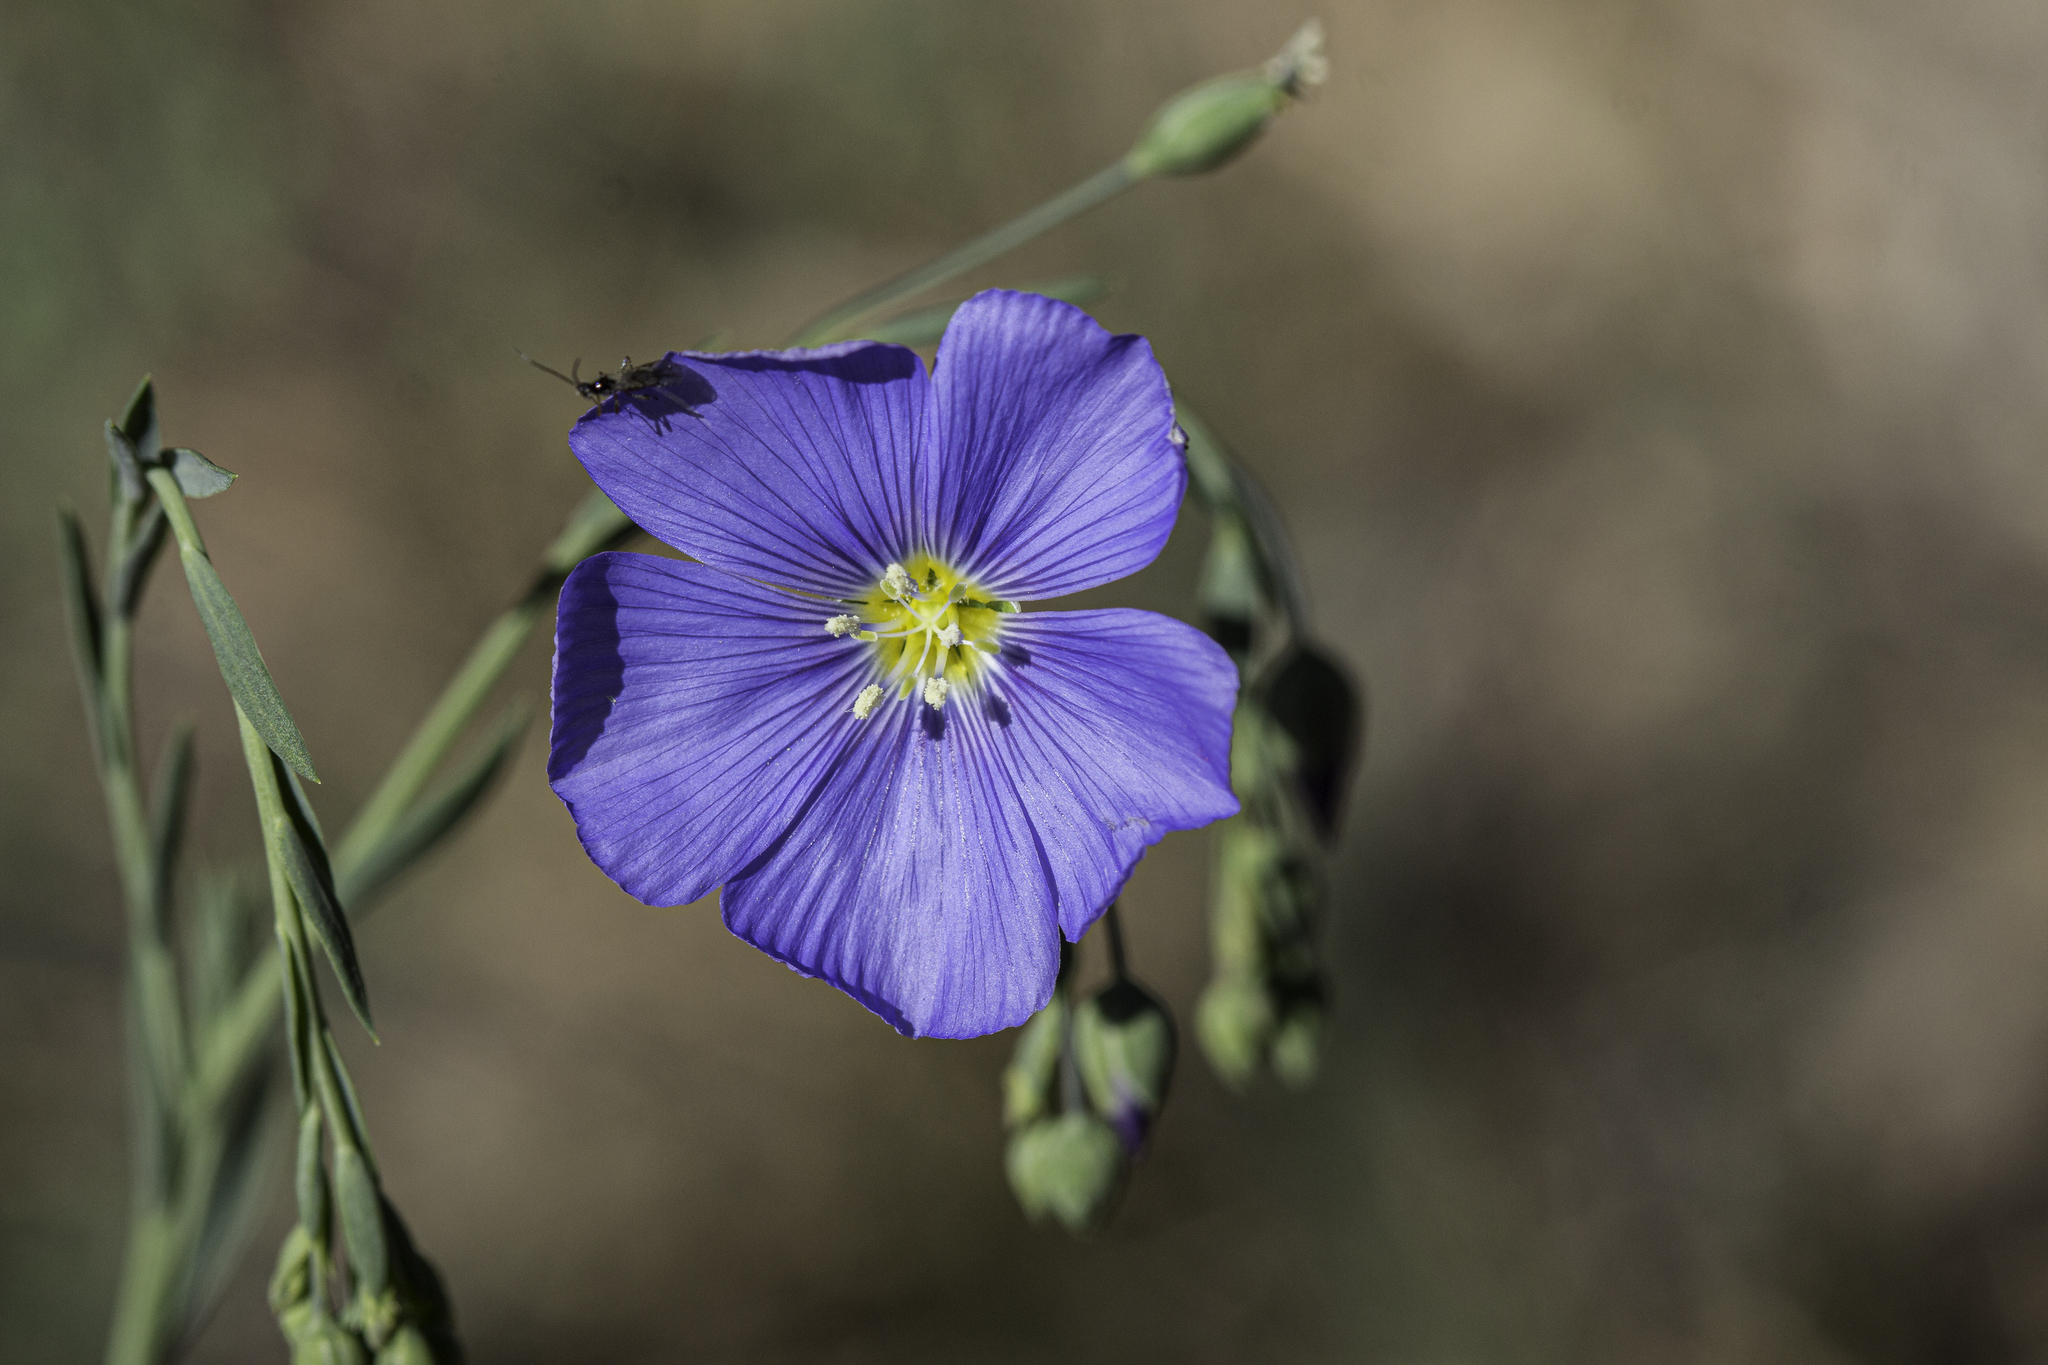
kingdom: Plantae
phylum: Tracheophyta
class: Magnoliopsida
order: Malpighiales
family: Linaceae
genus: Linum
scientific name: Linum lewisii
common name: Prairie flax
